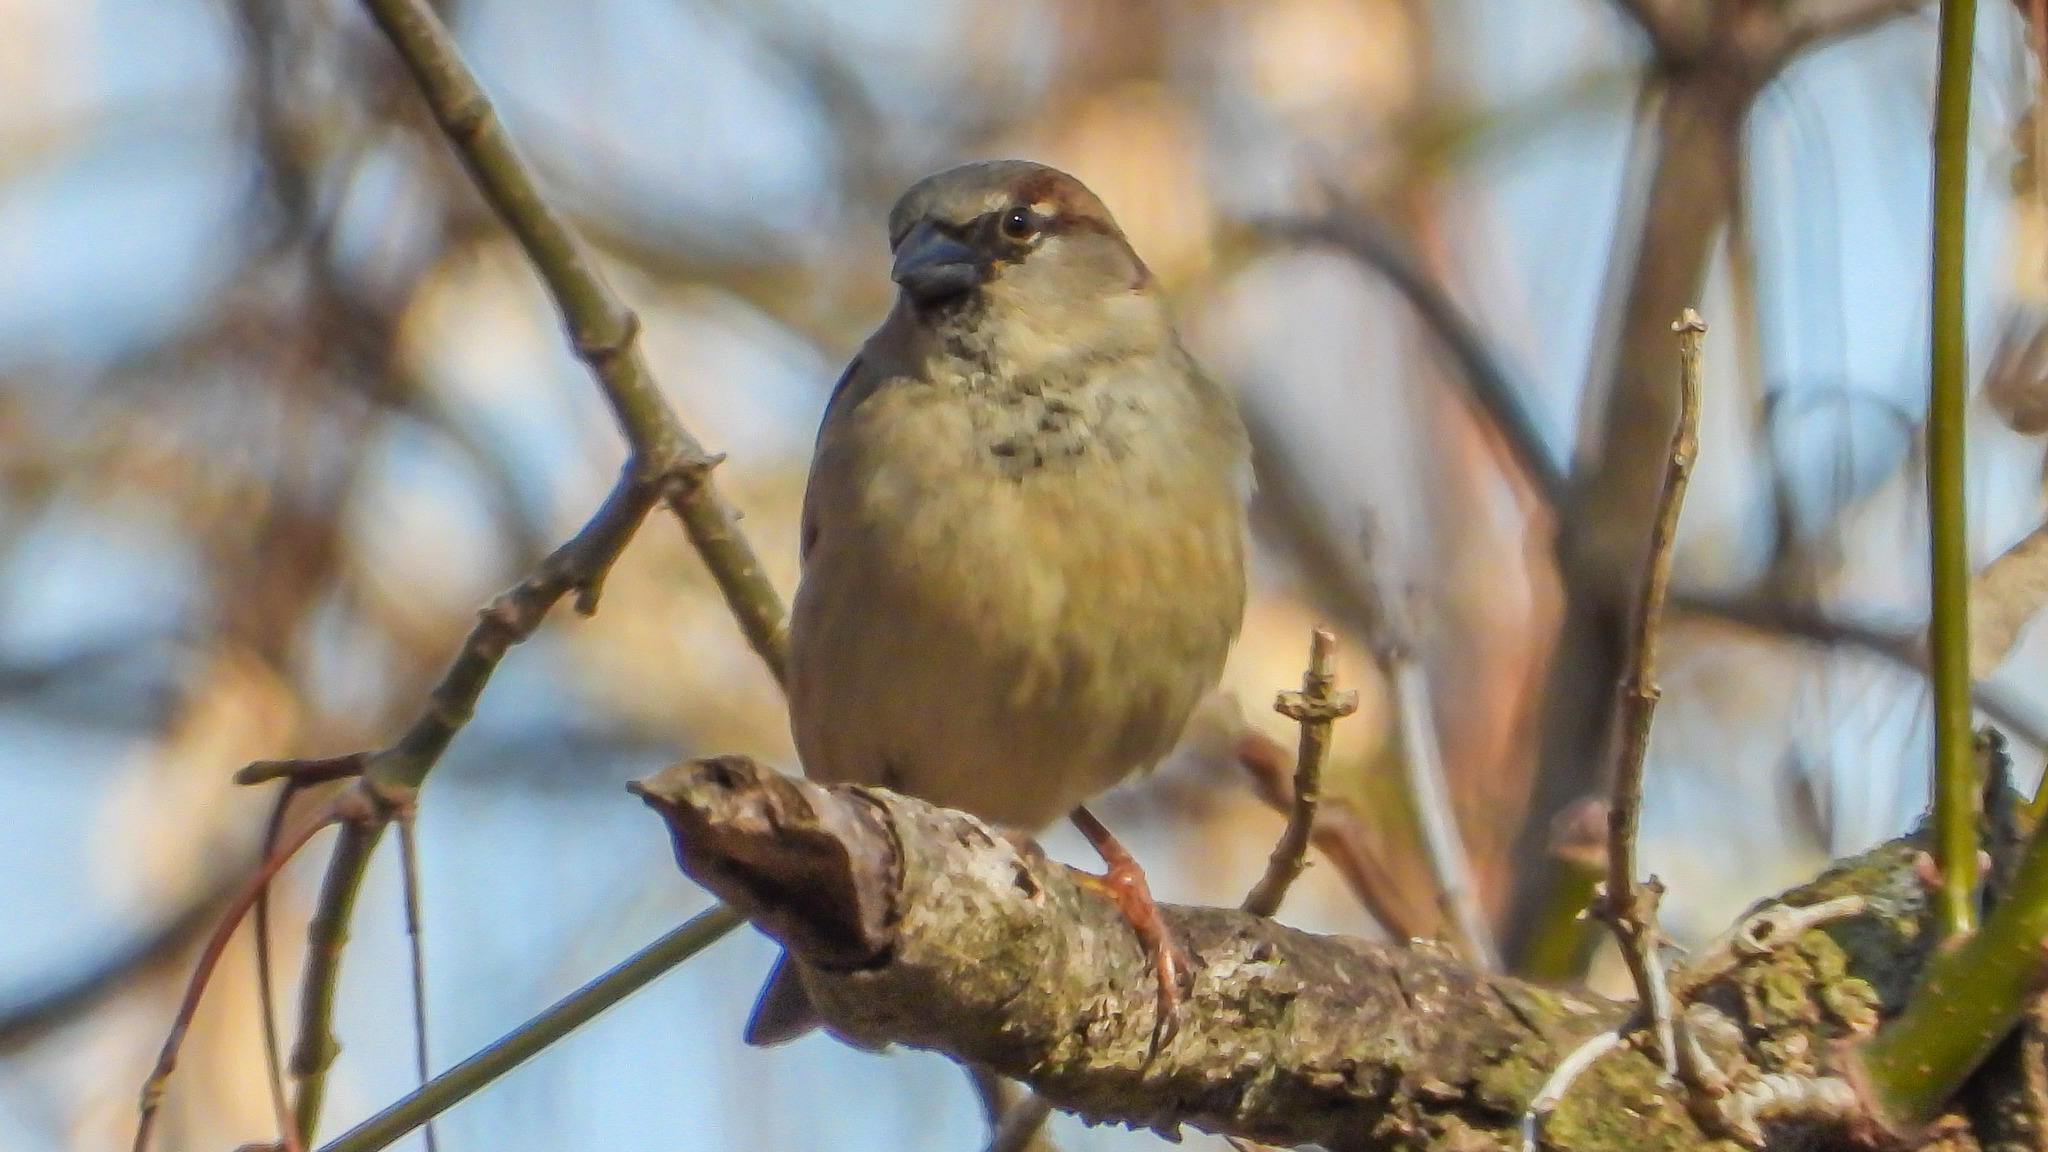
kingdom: Animalia
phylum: Chordata
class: Aves
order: Passeriformes
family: Passeridae
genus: Passer
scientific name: Passer domesticus
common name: House sparrow
